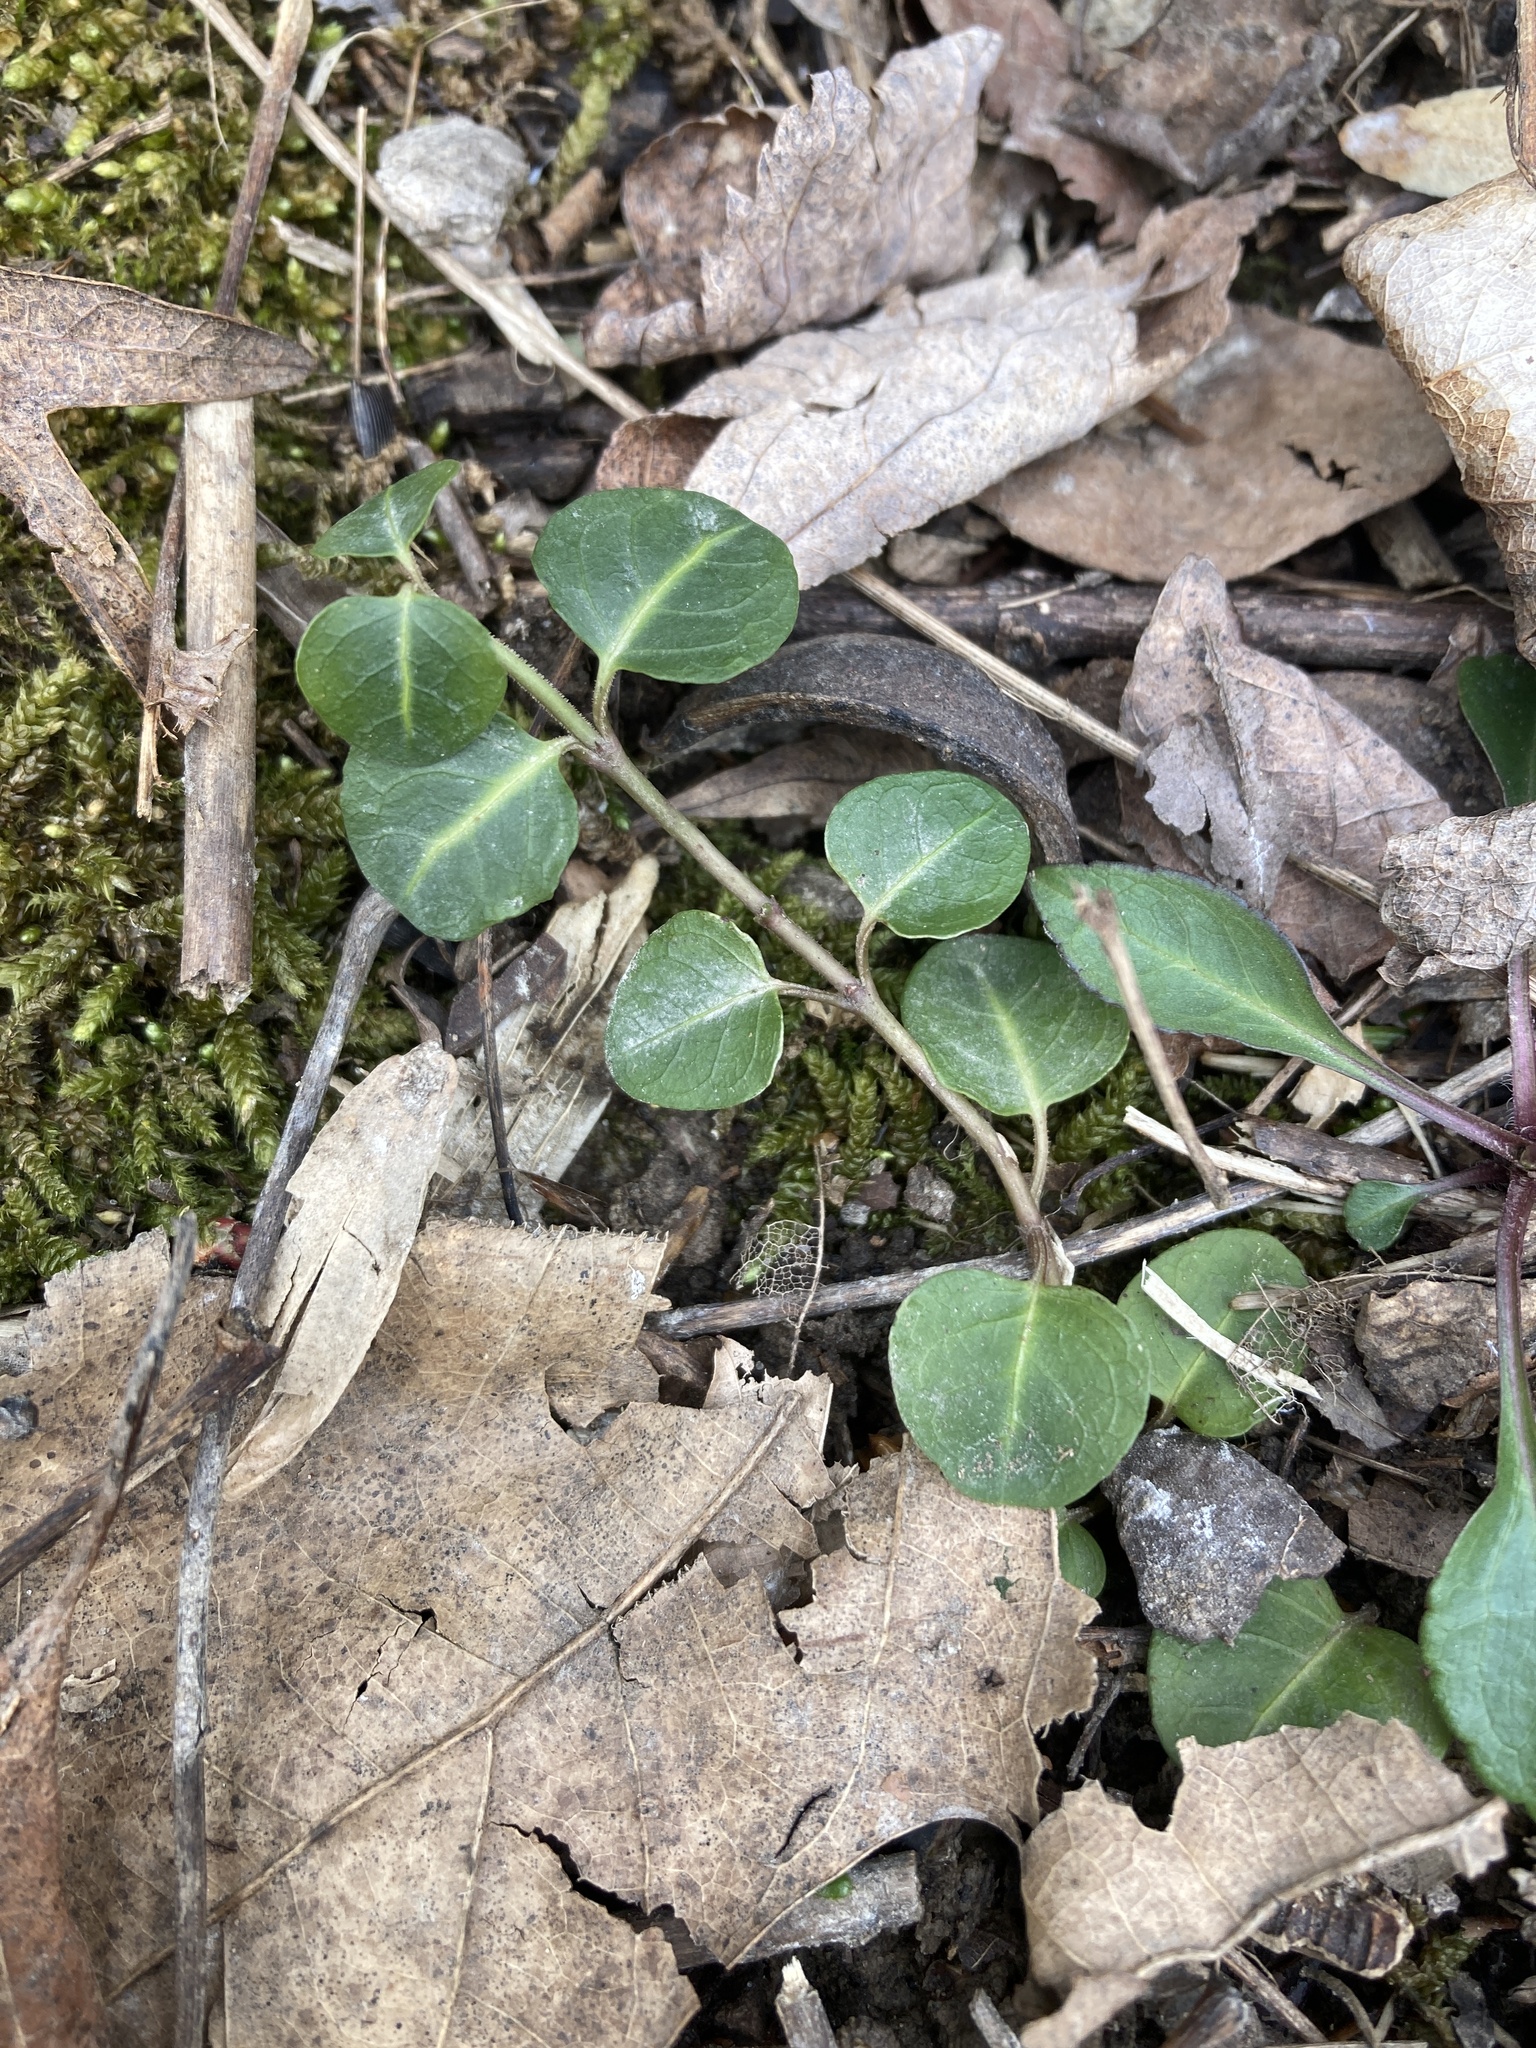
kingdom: Plantae
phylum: Tracheophyta
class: Magnoliopsida
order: Gentianales
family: Rubiaceae
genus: Mitchella
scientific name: Mitchella repens
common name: Partridge-berry
